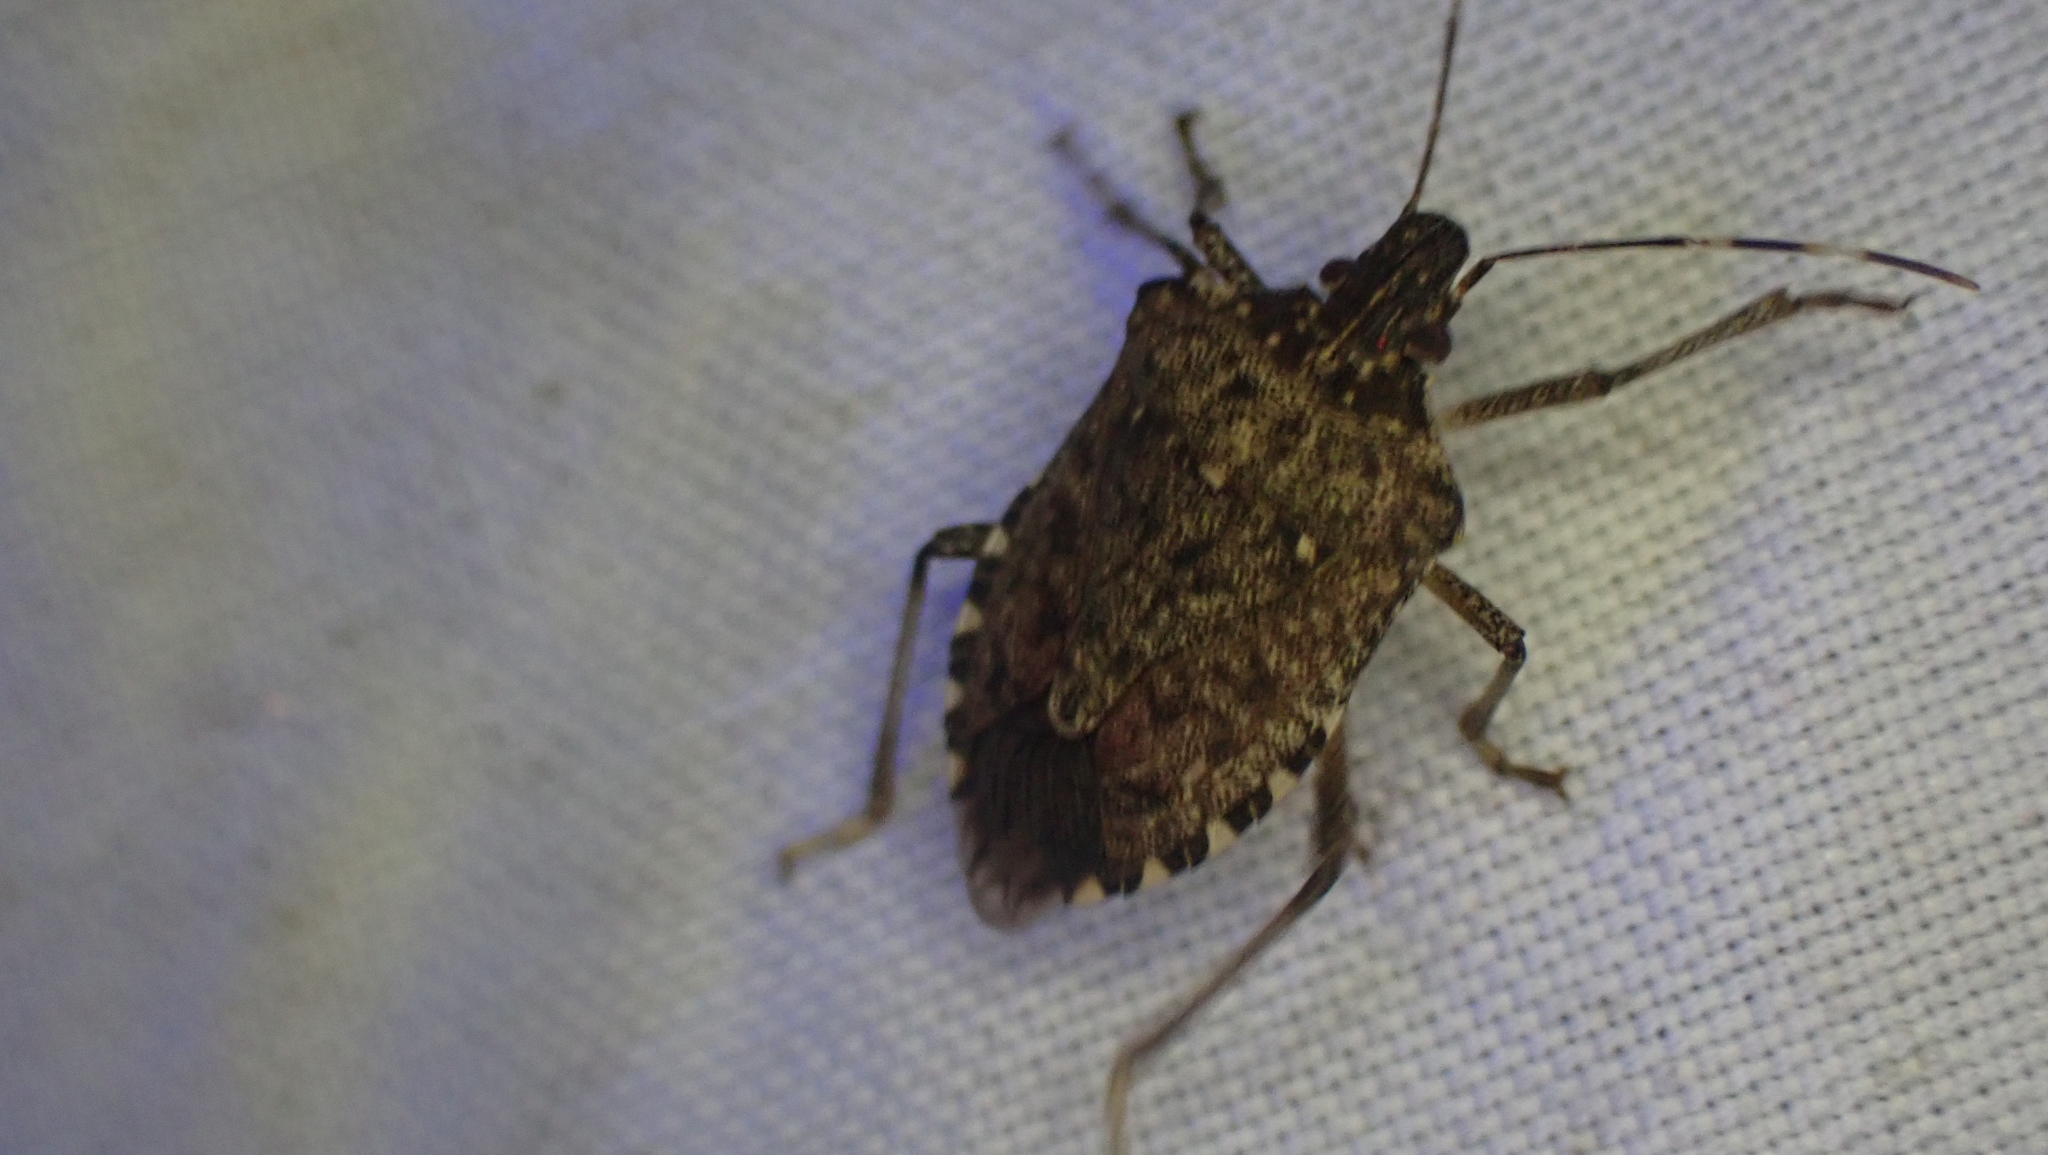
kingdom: Animalia
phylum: Arthropoda
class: Insecta
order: Hemiptera
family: Pentatomidae
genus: Halyomorpha
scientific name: Halyomorpha halys
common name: Brown marmorated stink bug
